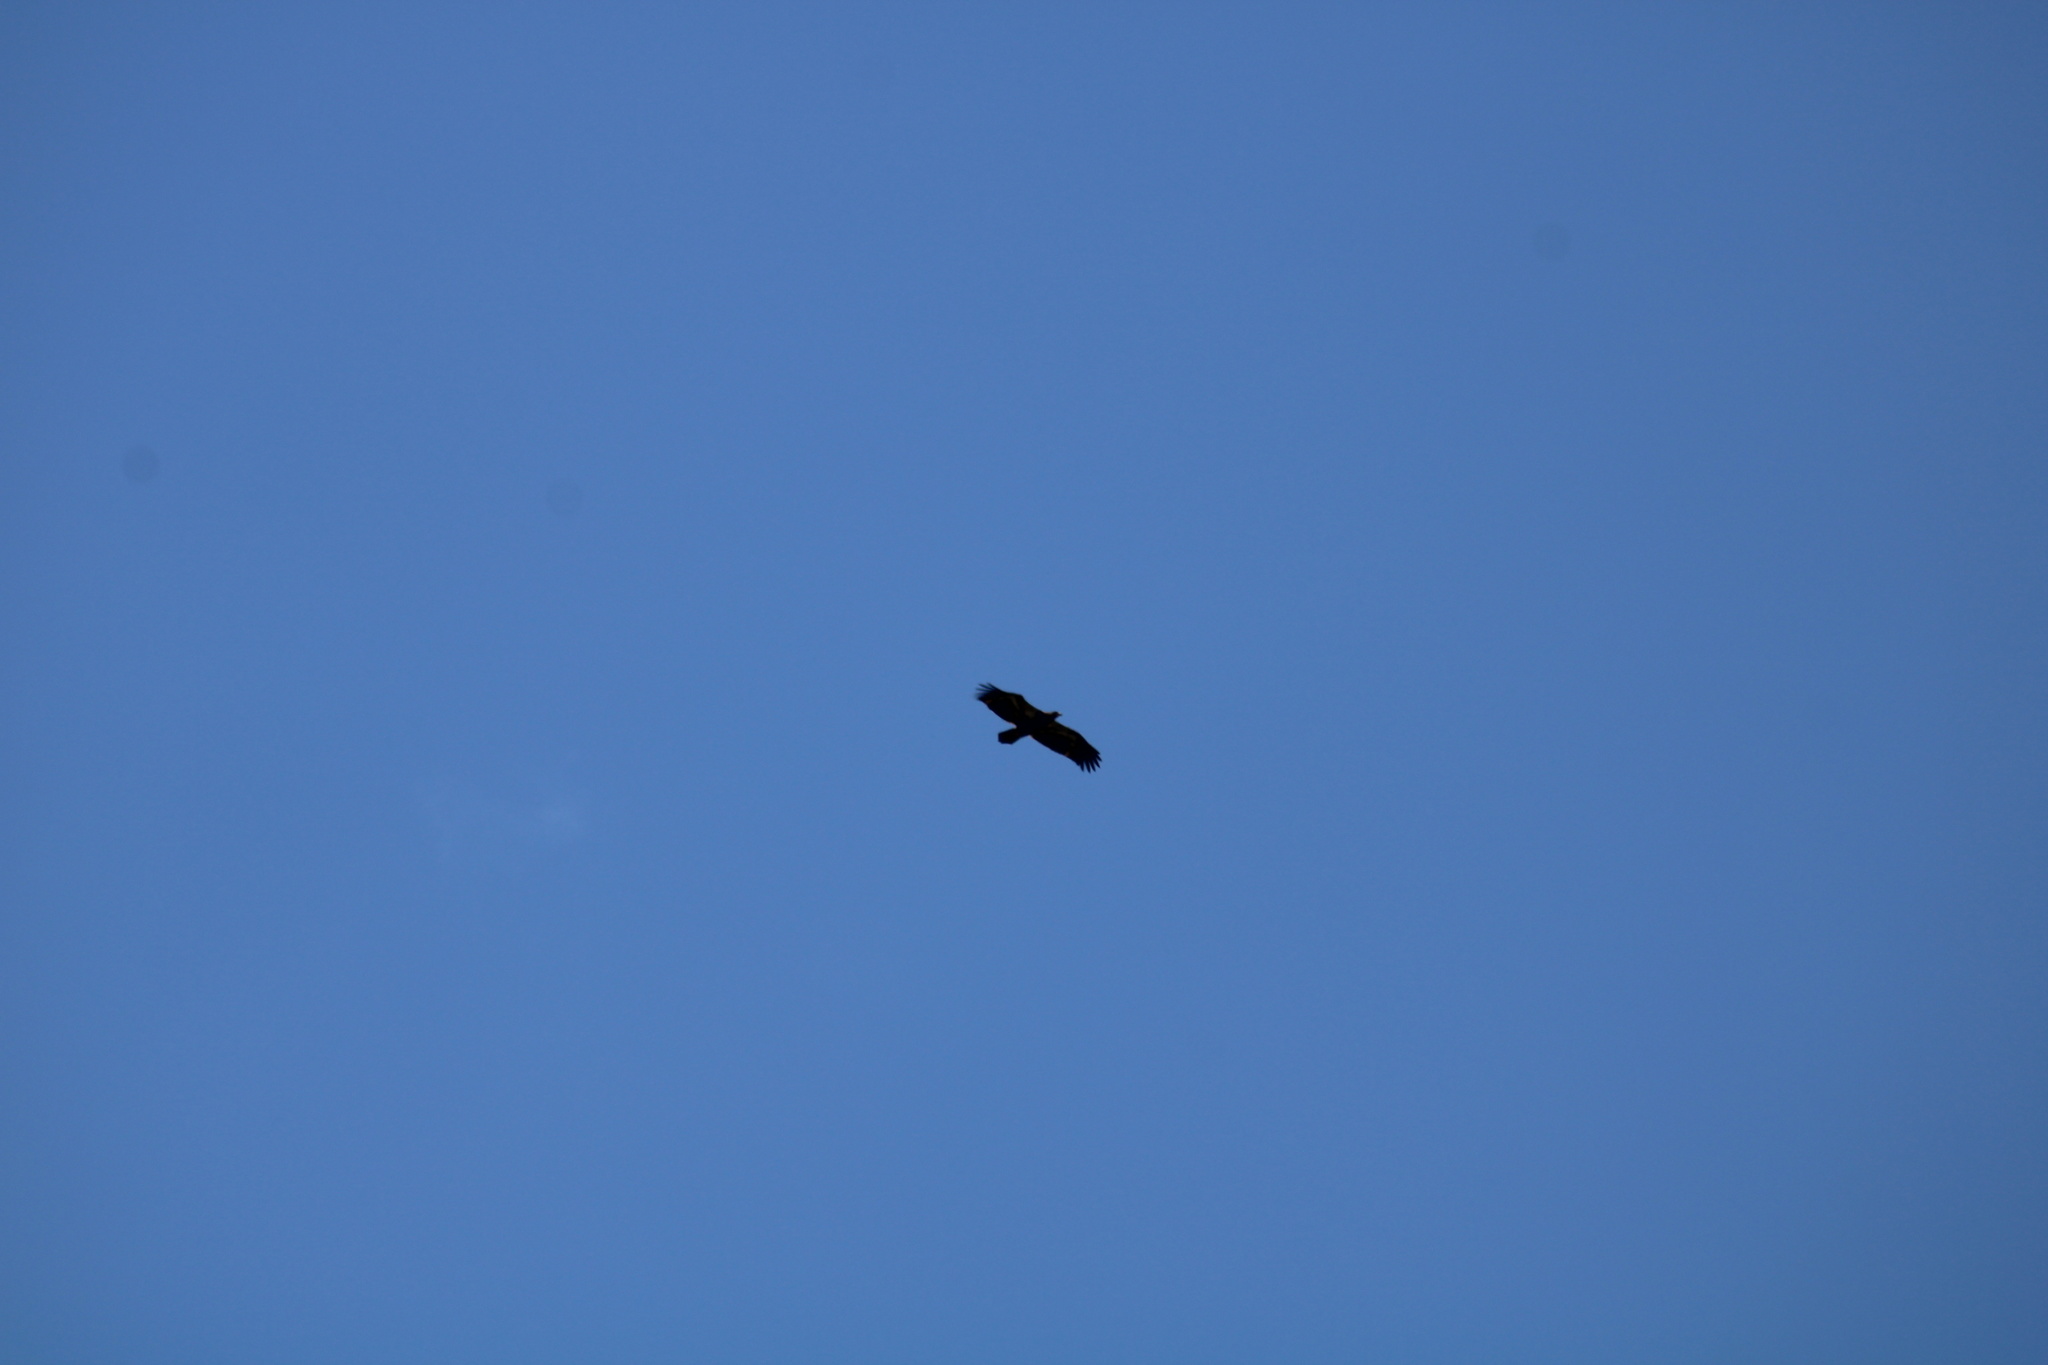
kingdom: Animalia
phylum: Chordata
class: Aves
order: Accipitriformes
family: Accipitridae
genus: Haliaeetus
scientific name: Haliaeetus leucocephalus
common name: Bald eagle
